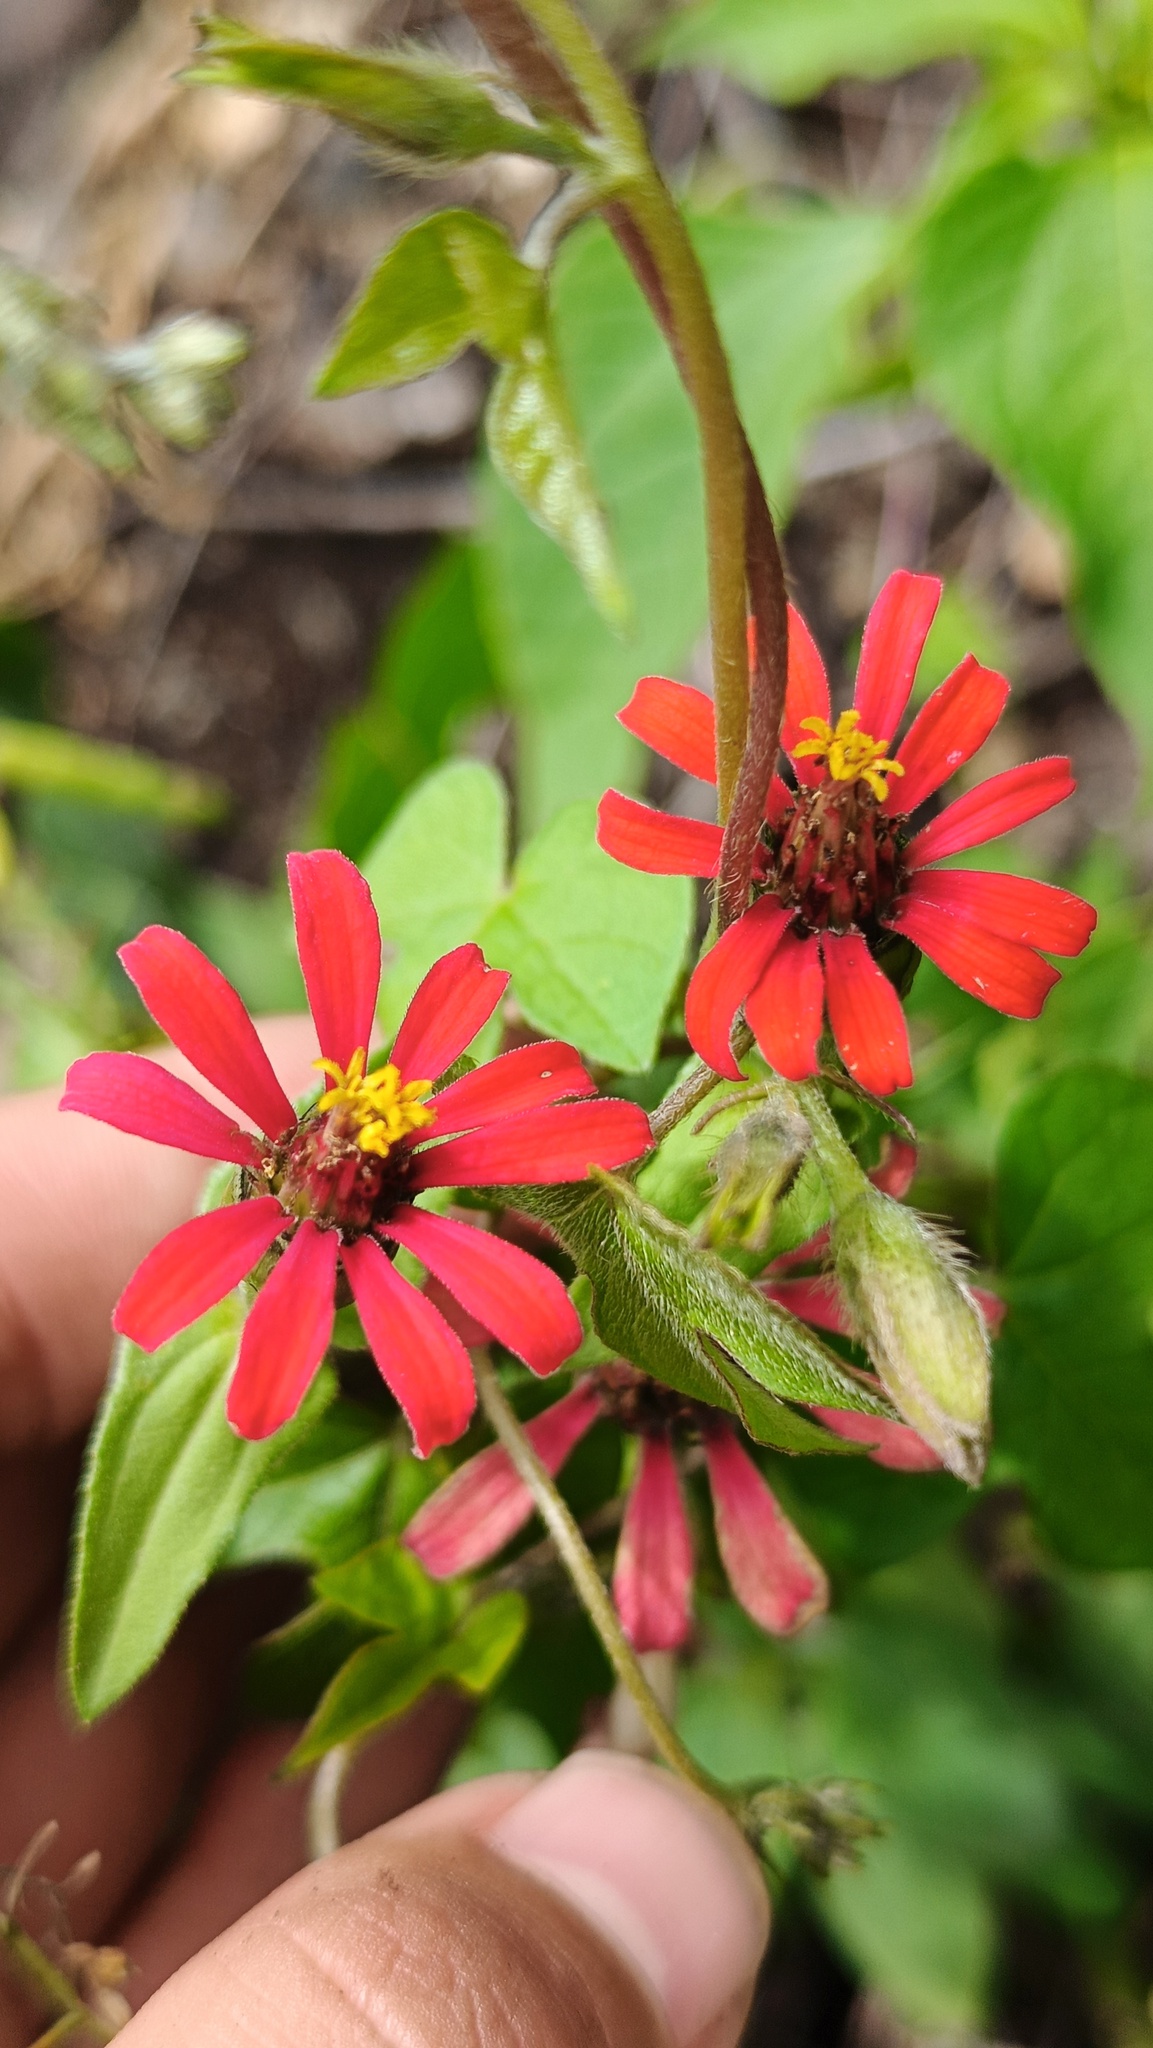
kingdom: Plantae
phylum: Tracheophyta
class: Magnoliopsida
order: Asterales
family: Asteraceae
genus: Zinnia
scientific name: Zinnia peruviana
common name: Peruvian zinnia
